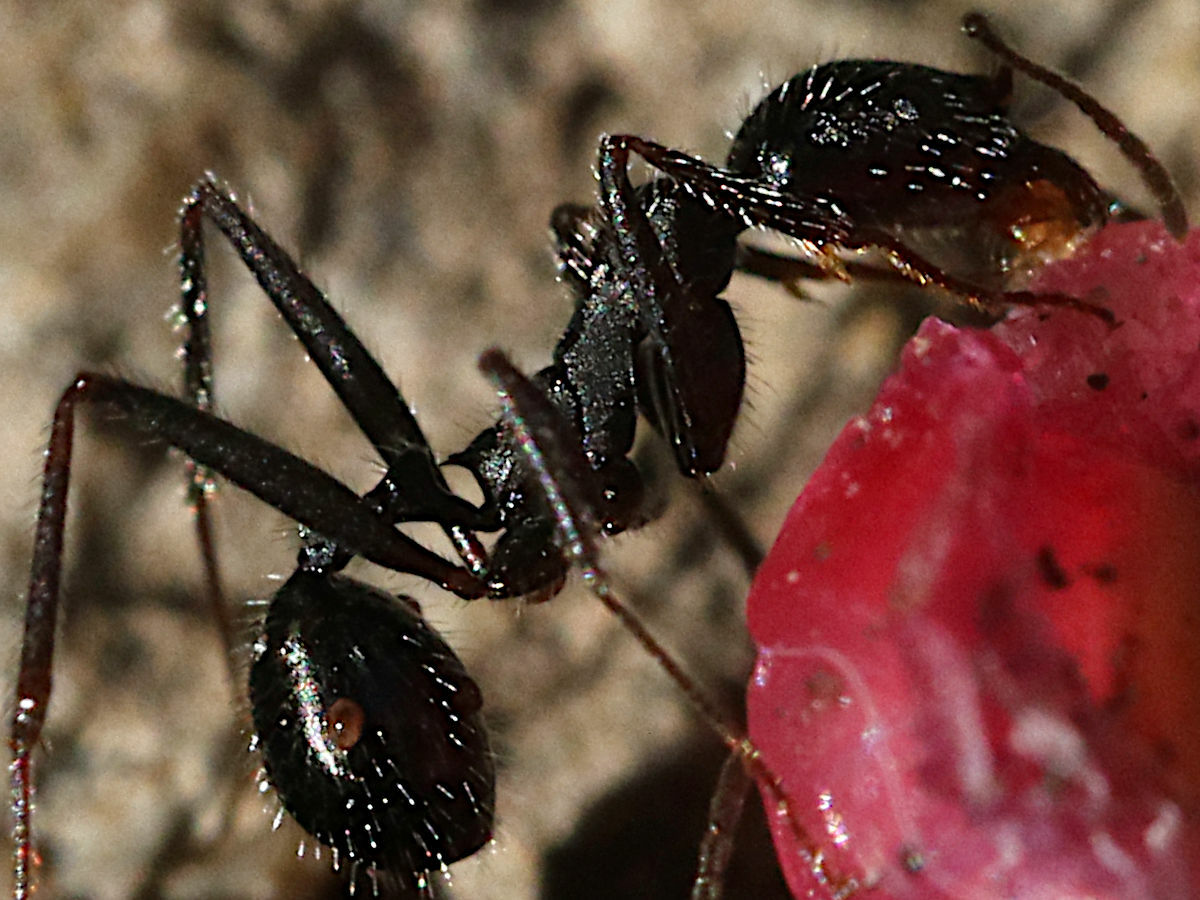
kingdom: Animalia
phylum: Arthropoda
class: Insecta
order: Hymenoptera
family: Formicidae
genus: Aphaenogaster
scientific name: Aphaenogaster
